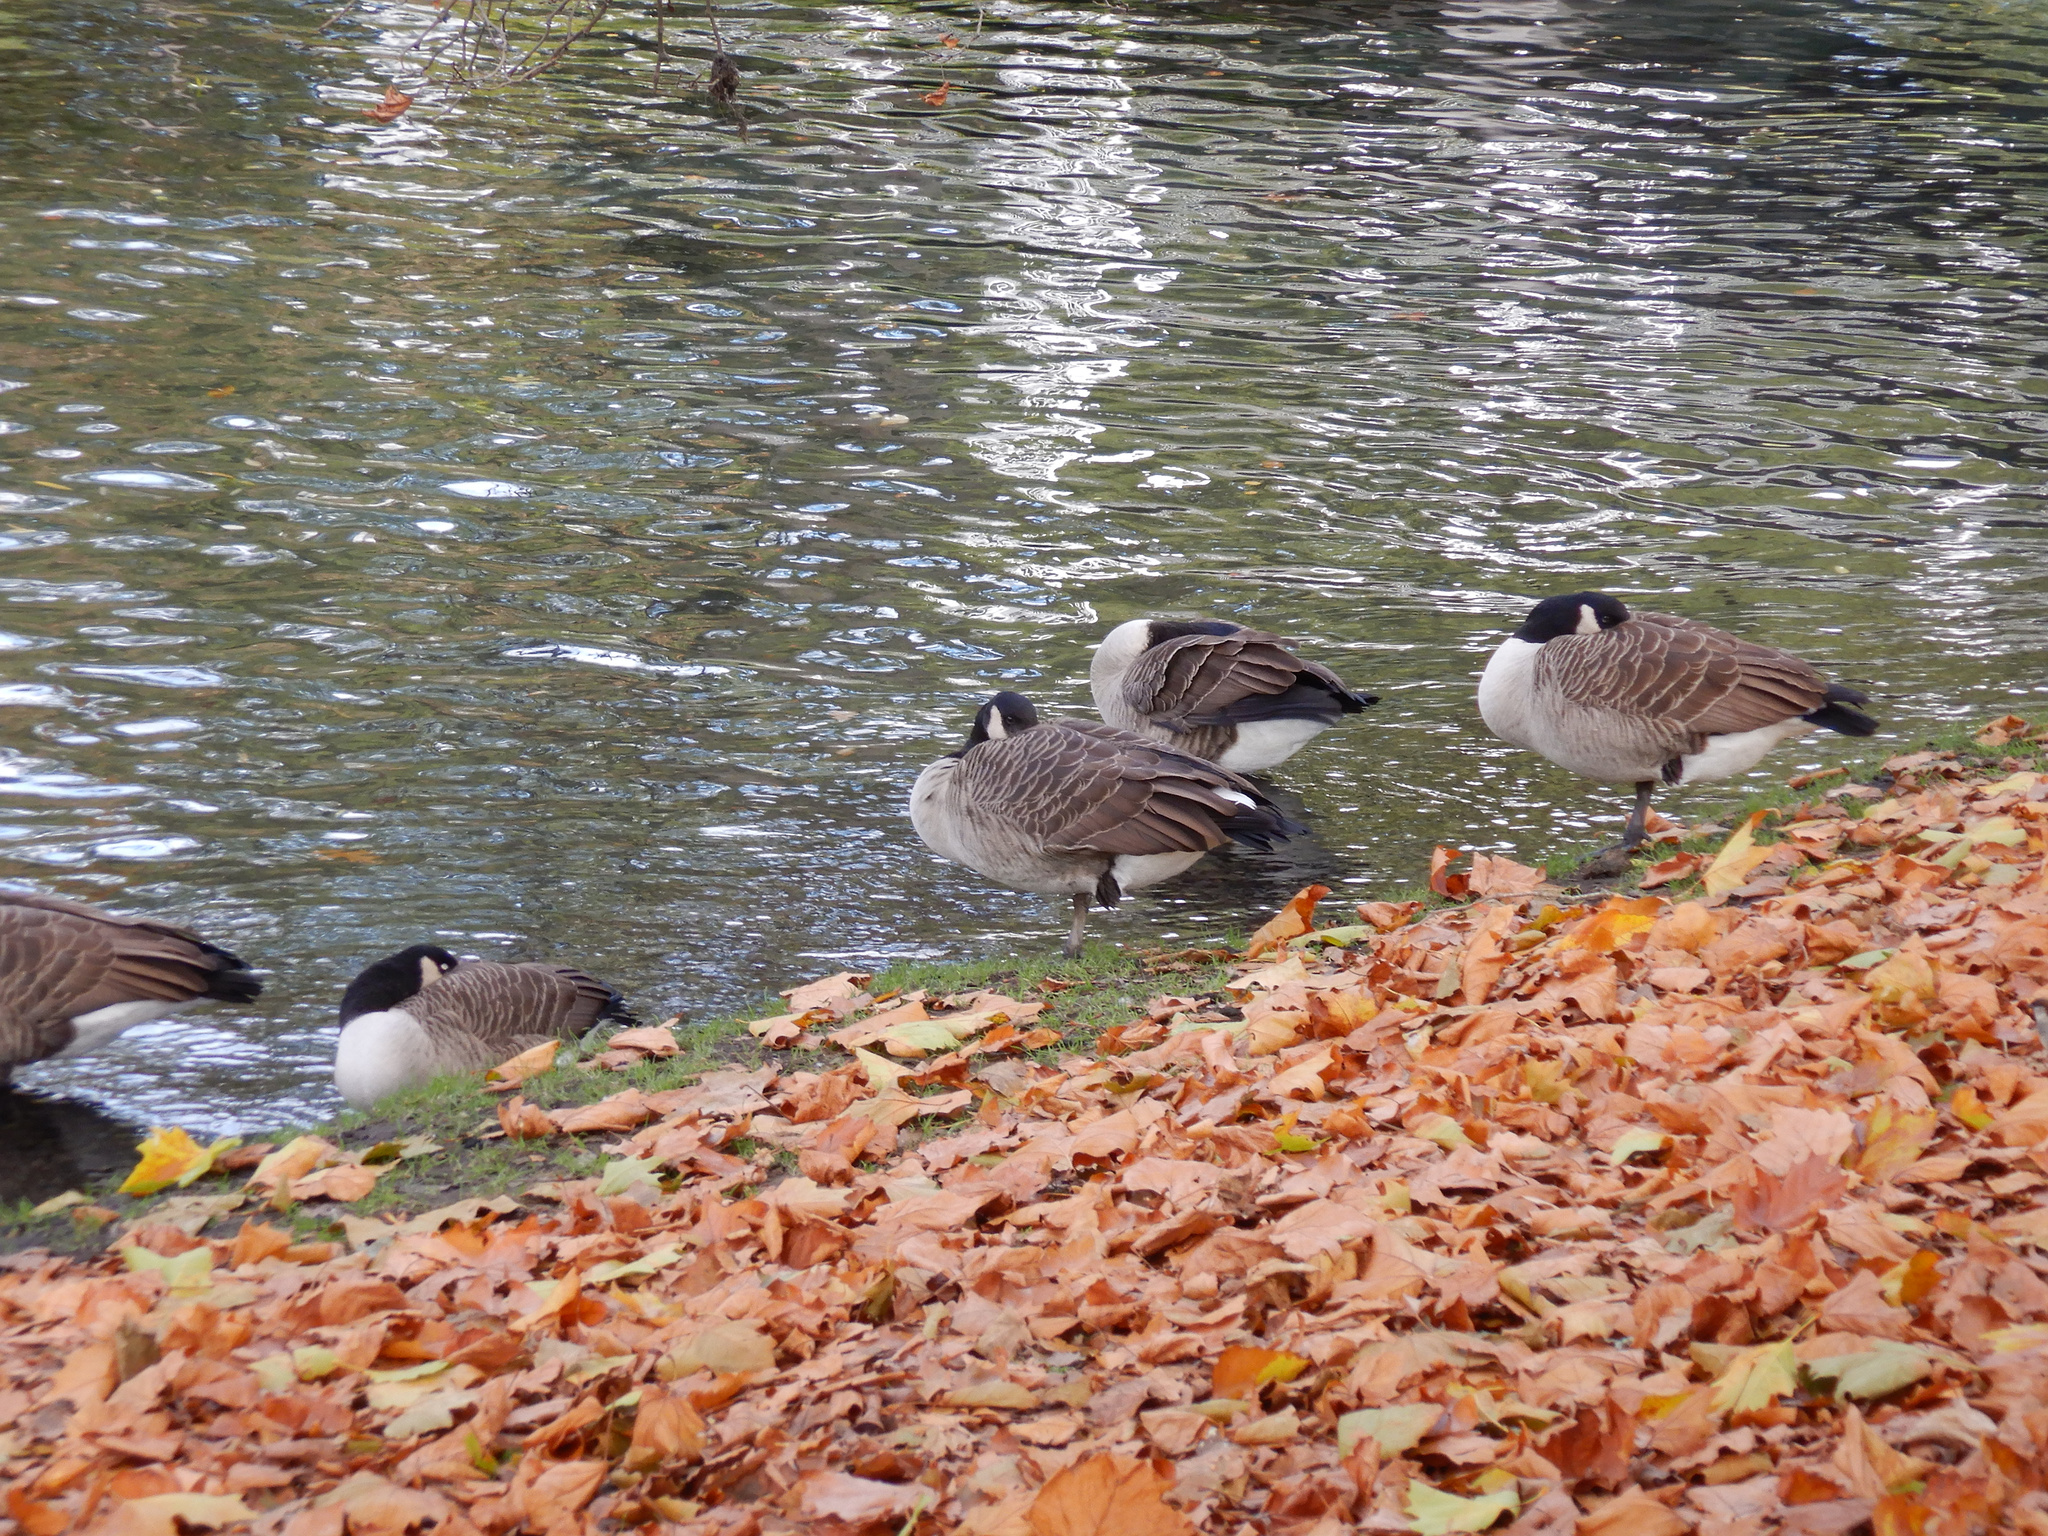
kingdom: Animalia
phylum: Chordata
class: Aves
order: Anseriformes
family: Anatidae
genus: Branta
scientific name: Branta canadensis
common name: Canada goose
